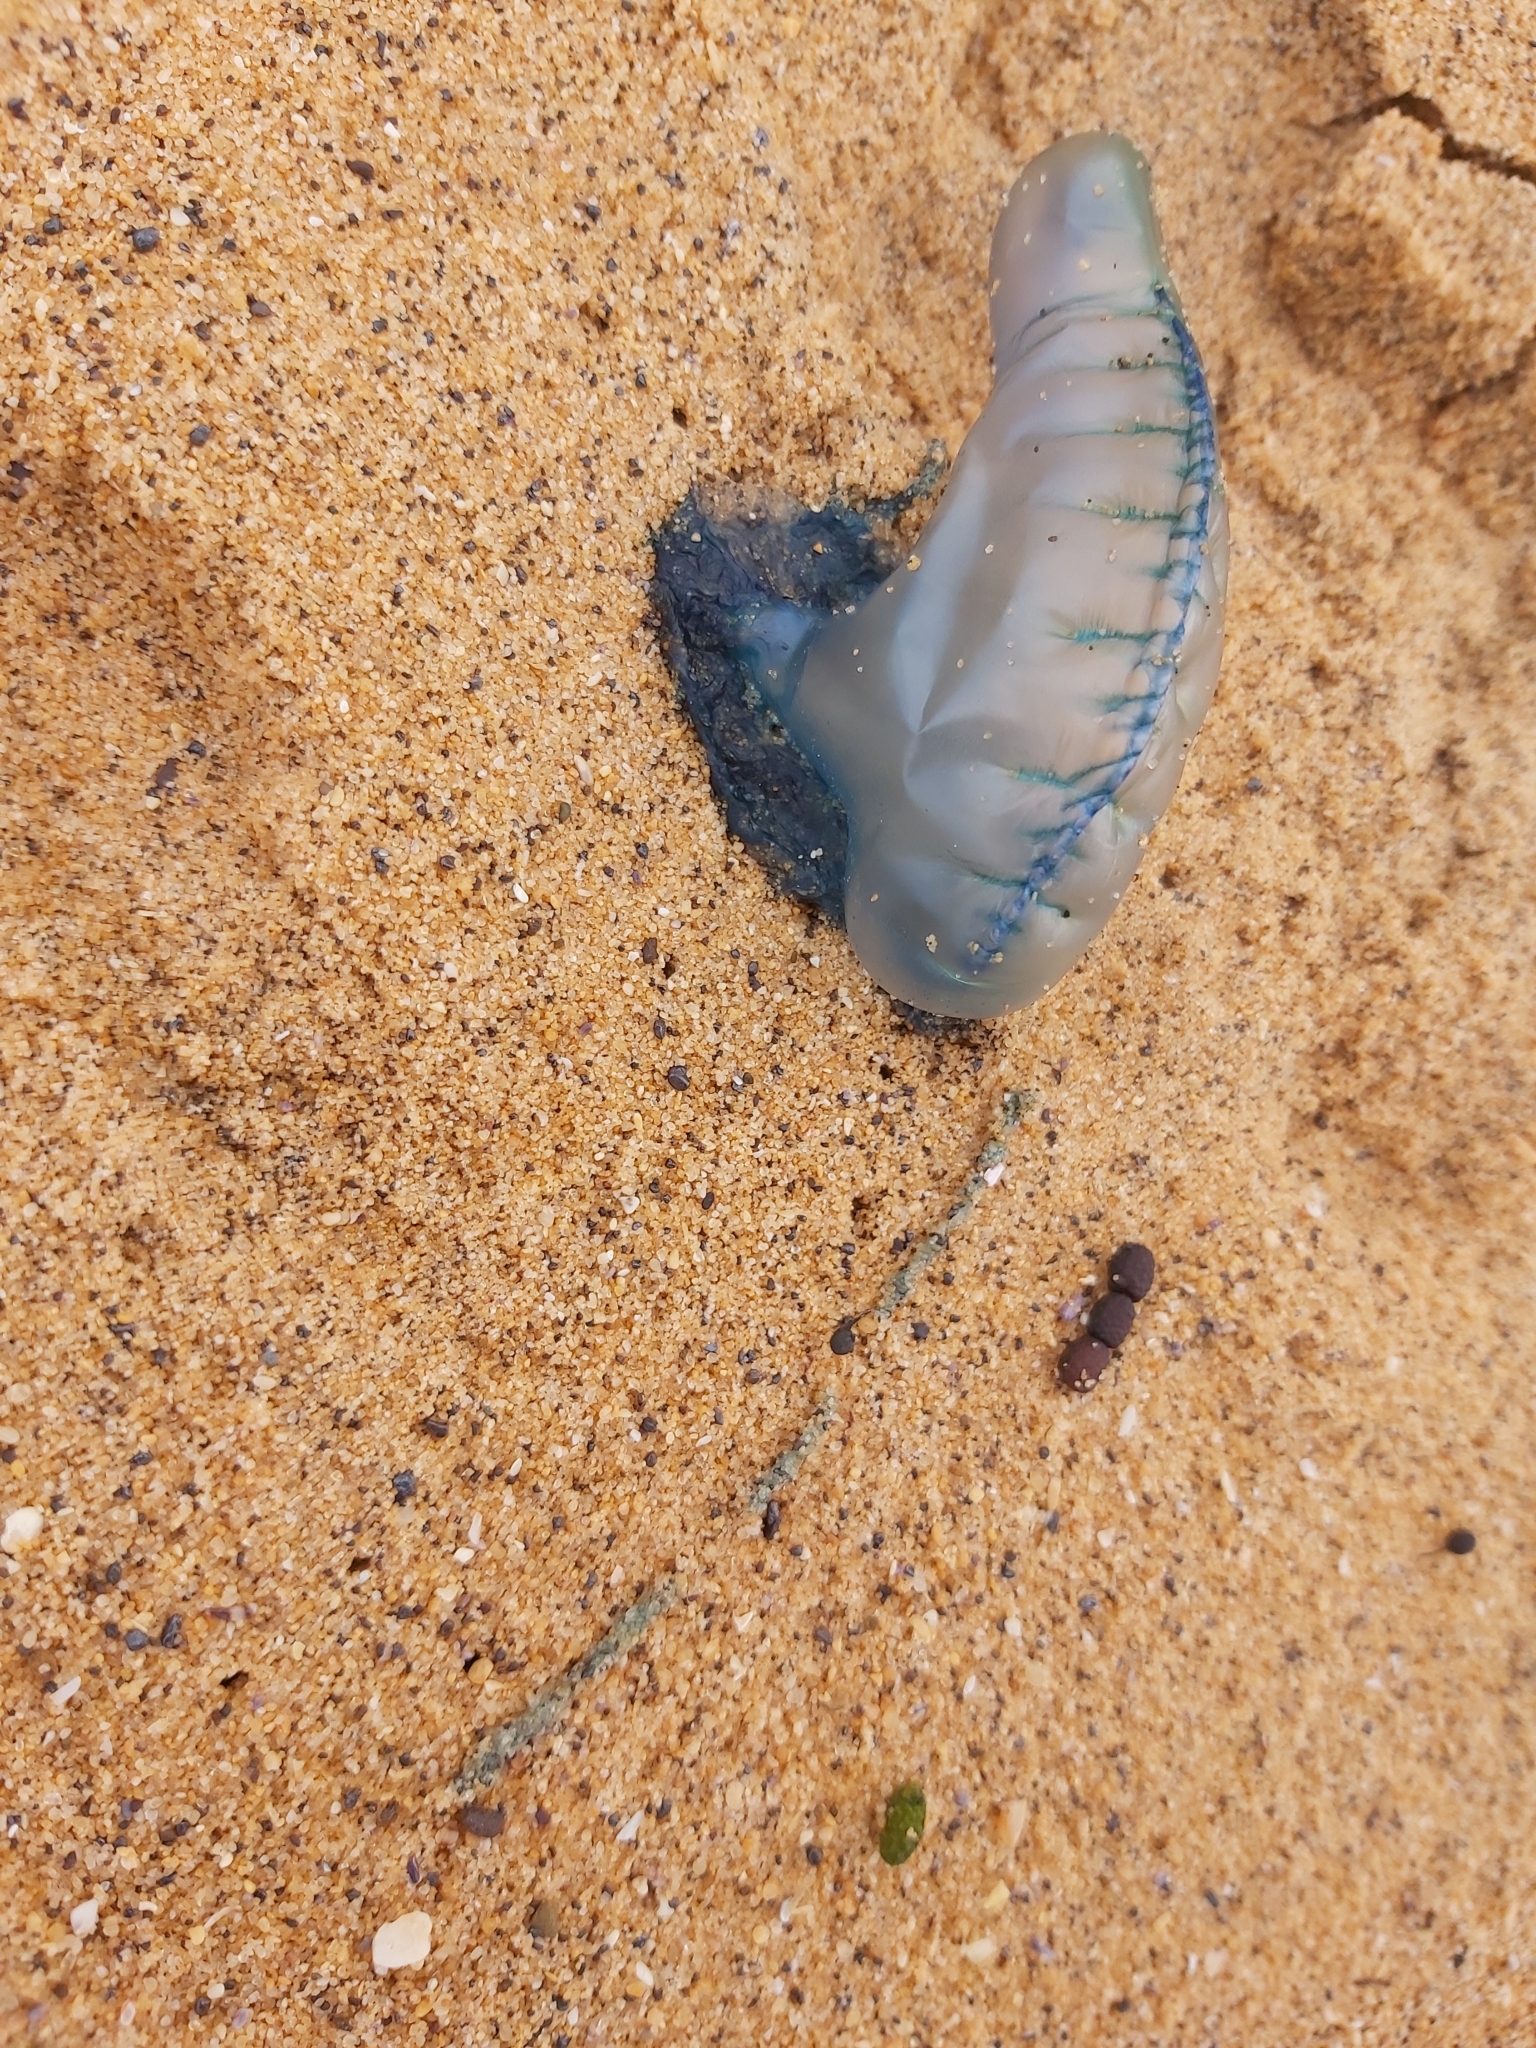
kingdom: Animalia
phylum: Cnidaria
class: Hydrozoa
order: Siphonophorae
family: Physaliidae
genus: Physalia
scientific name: Physalia physalis
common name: Portuguese man-of-war
